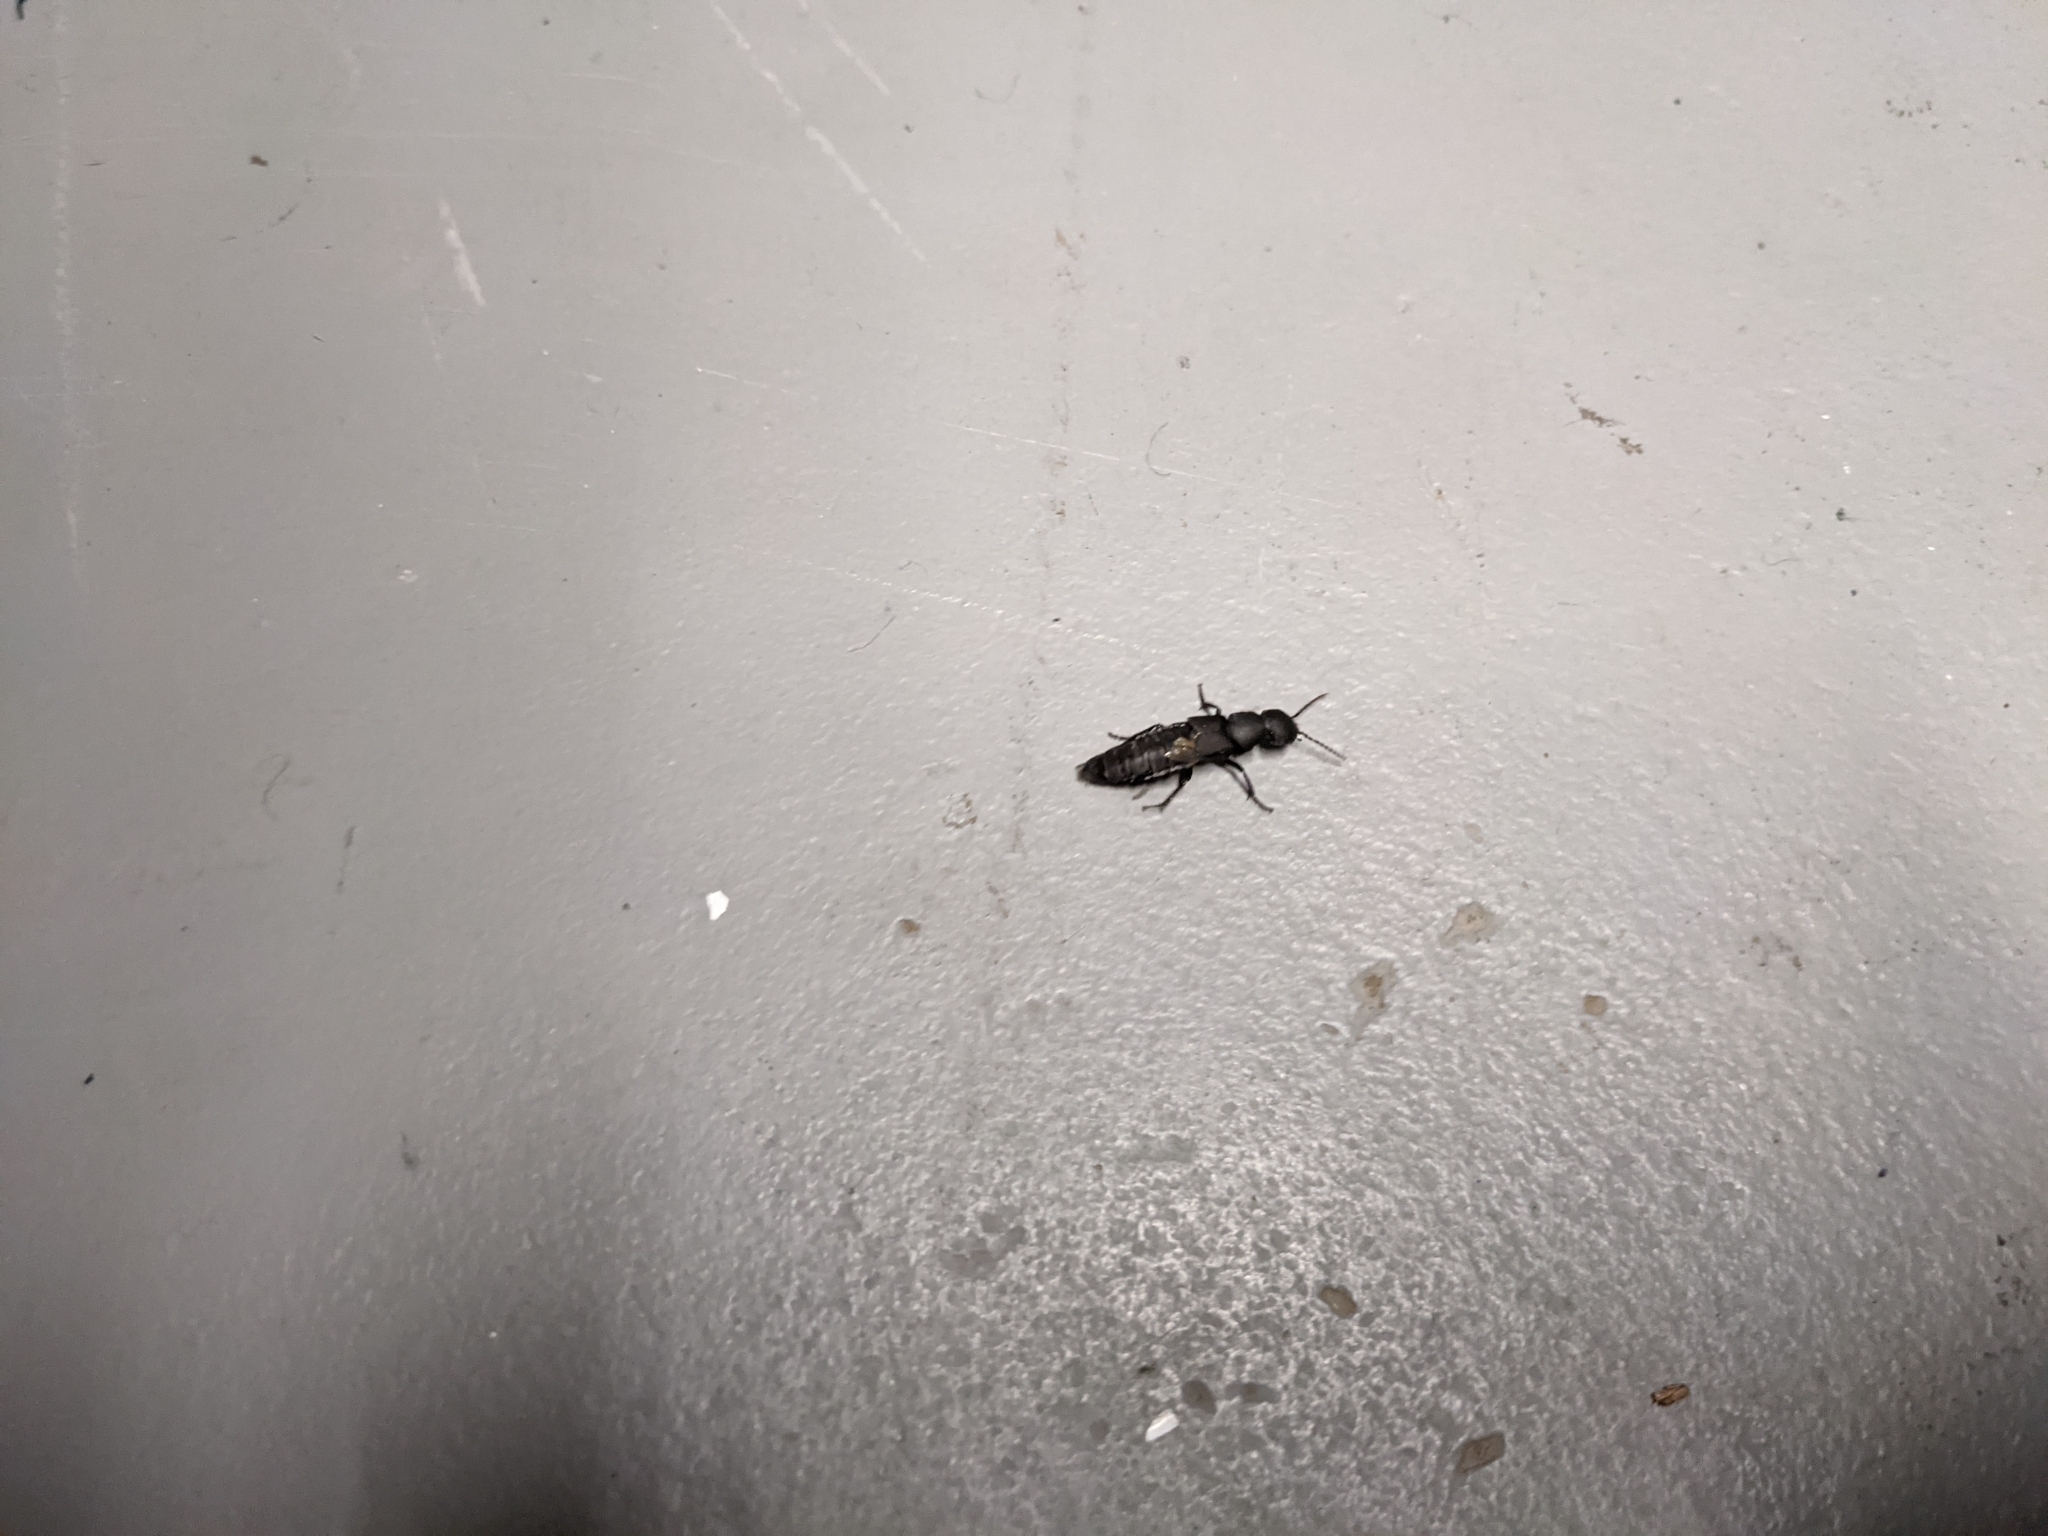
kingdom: Animalia
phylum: Arthropoda
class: Insecta
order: Coleoptera
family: Staphylinidae
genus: Ocypus
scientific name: Ocypus olens
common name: Devil's coach-horse
